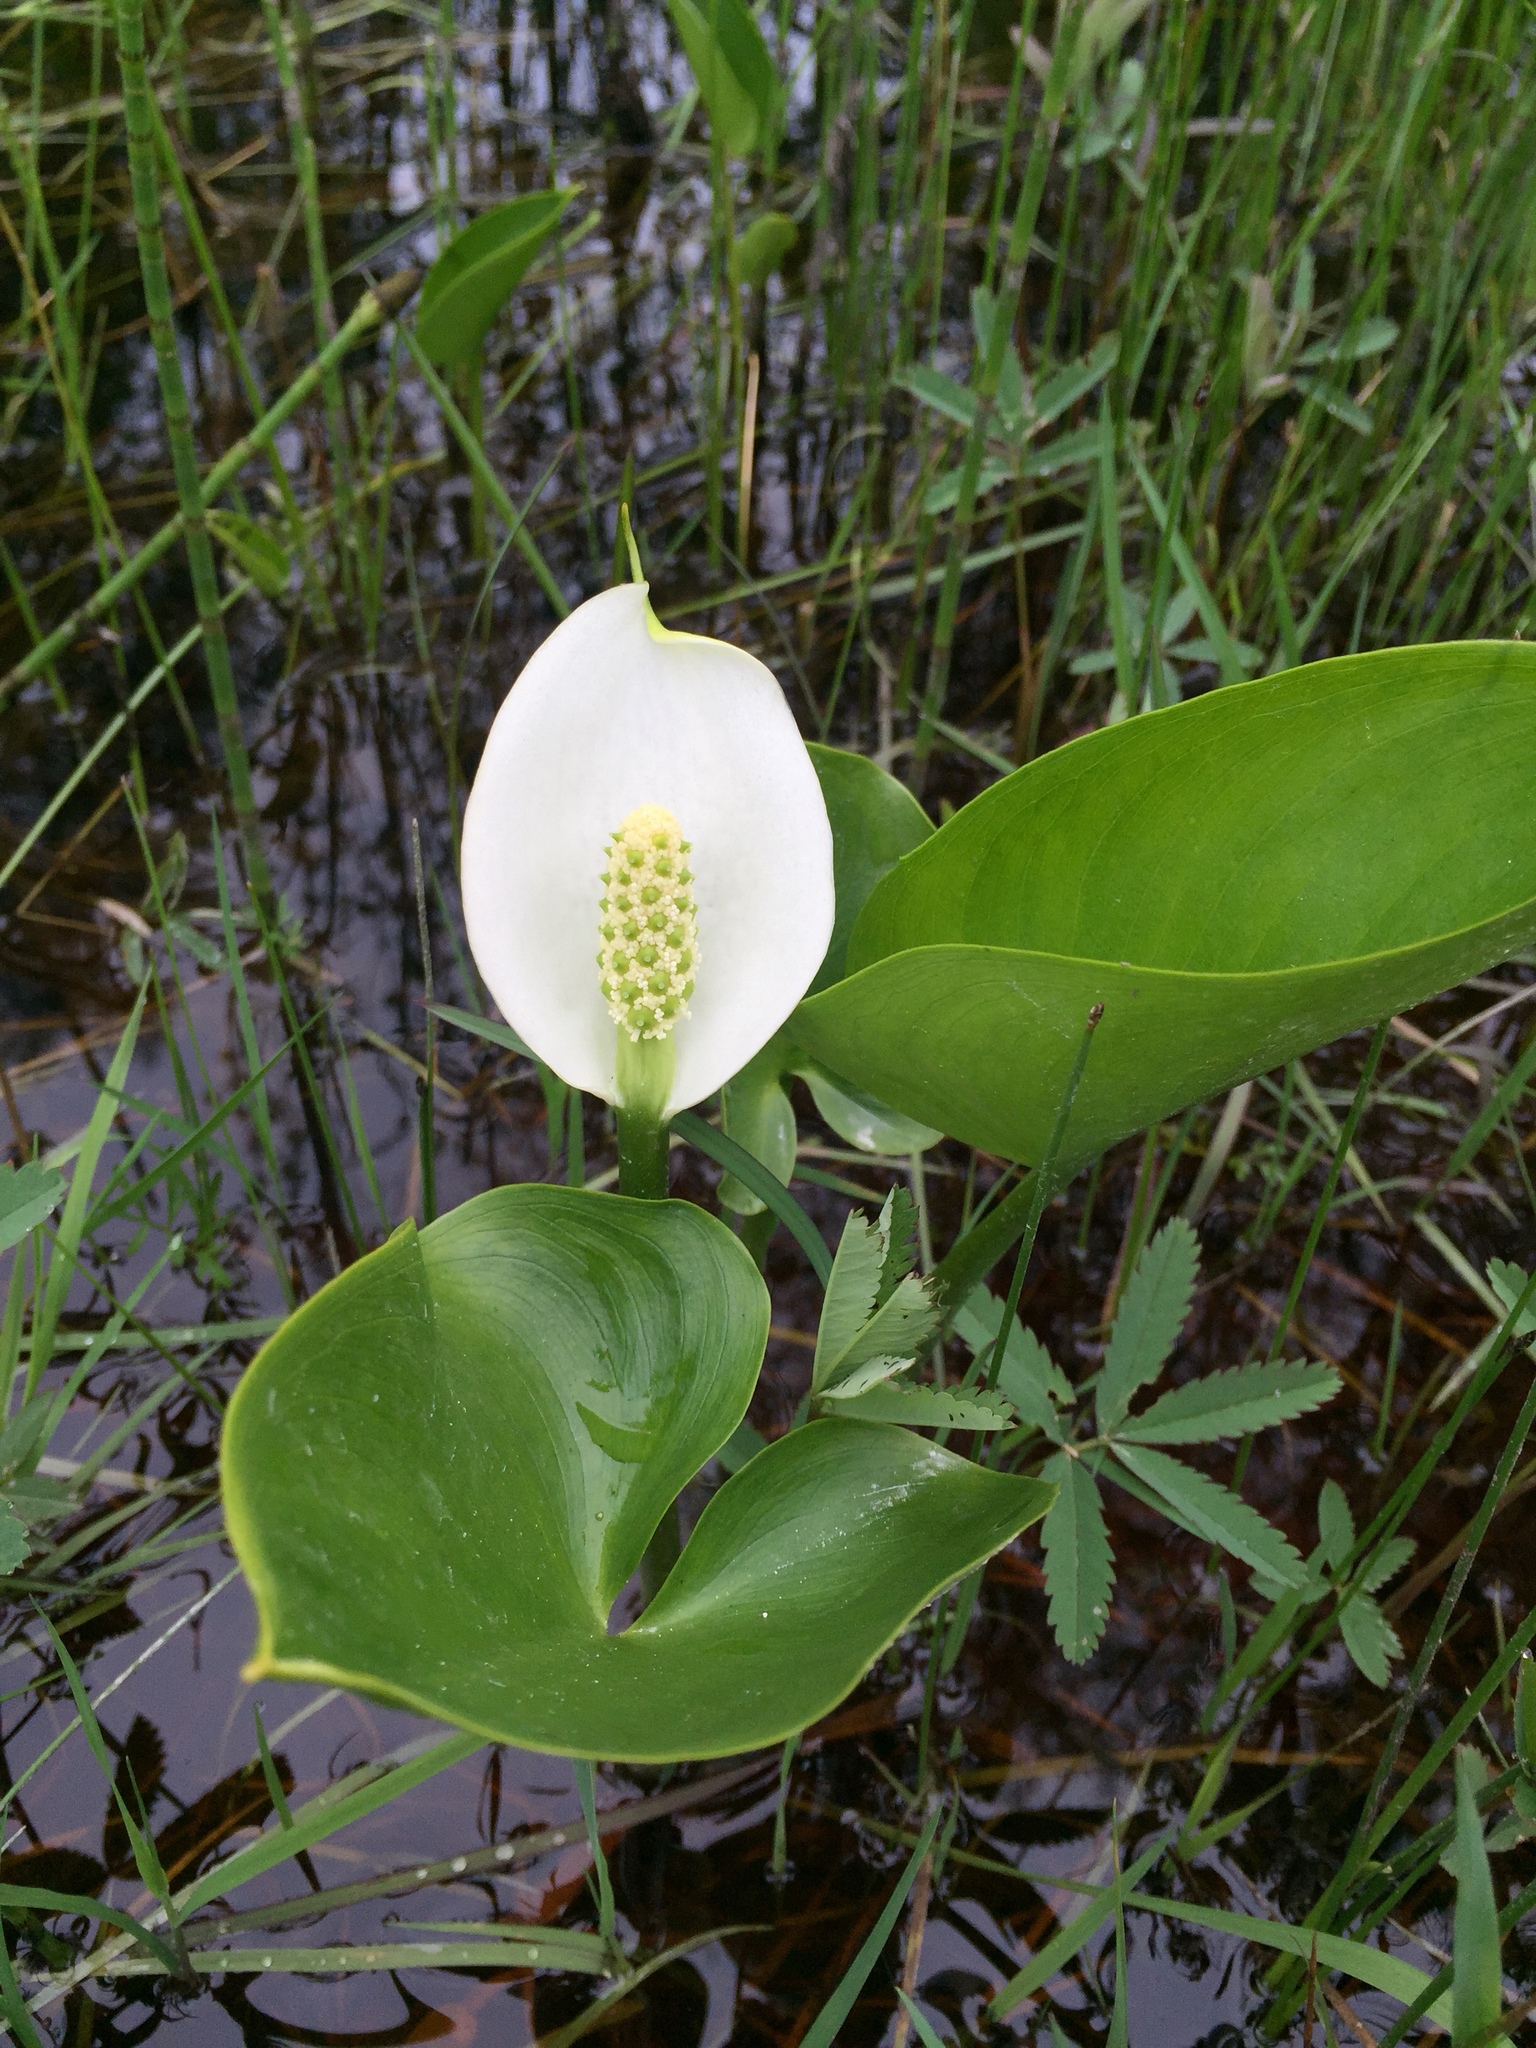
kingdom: Plantae
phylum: Tracheophyta
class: Liliopsida
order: Alismatales
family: Araceae
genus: Calla
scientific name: Calla palustris
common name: Bog arum
